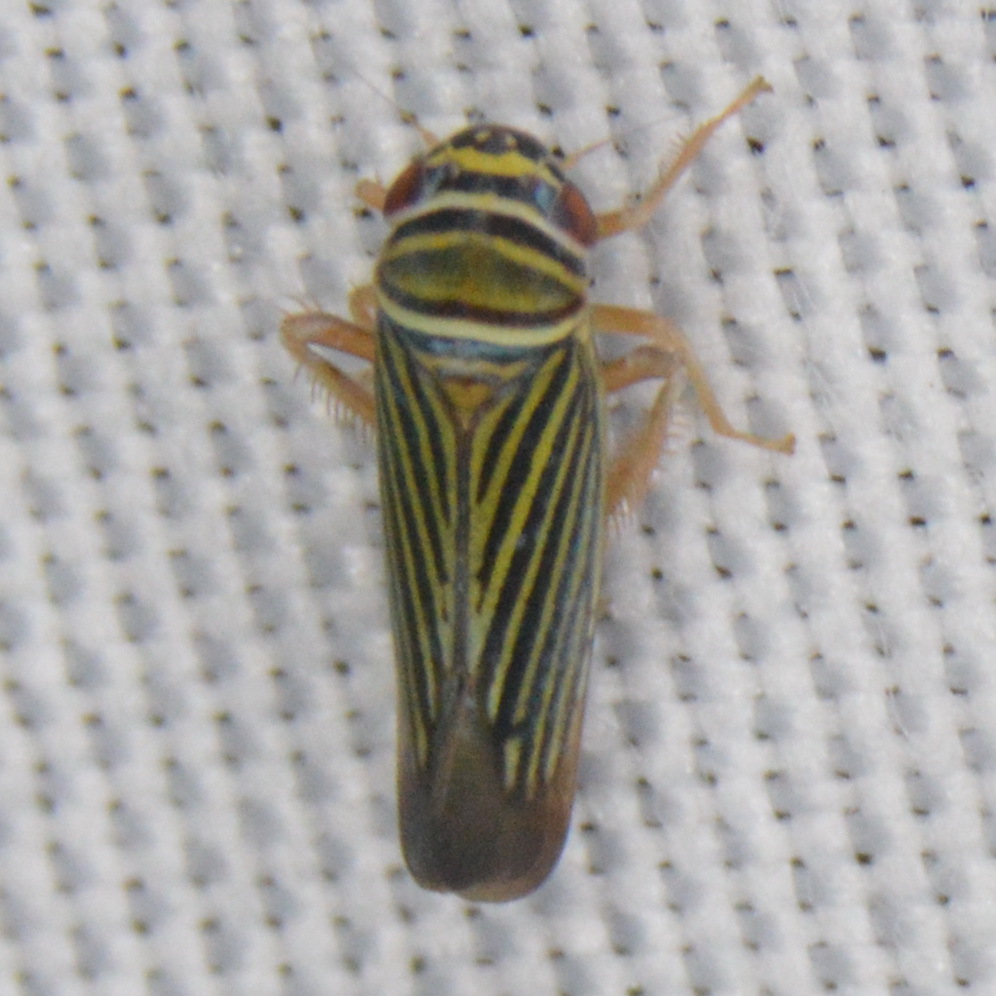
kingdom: Animalia
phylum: Arthropoda
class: Insecta
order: Hemiptera
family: Cicadellidae
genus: Tylozygus
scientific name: Tylozygus bifidus
